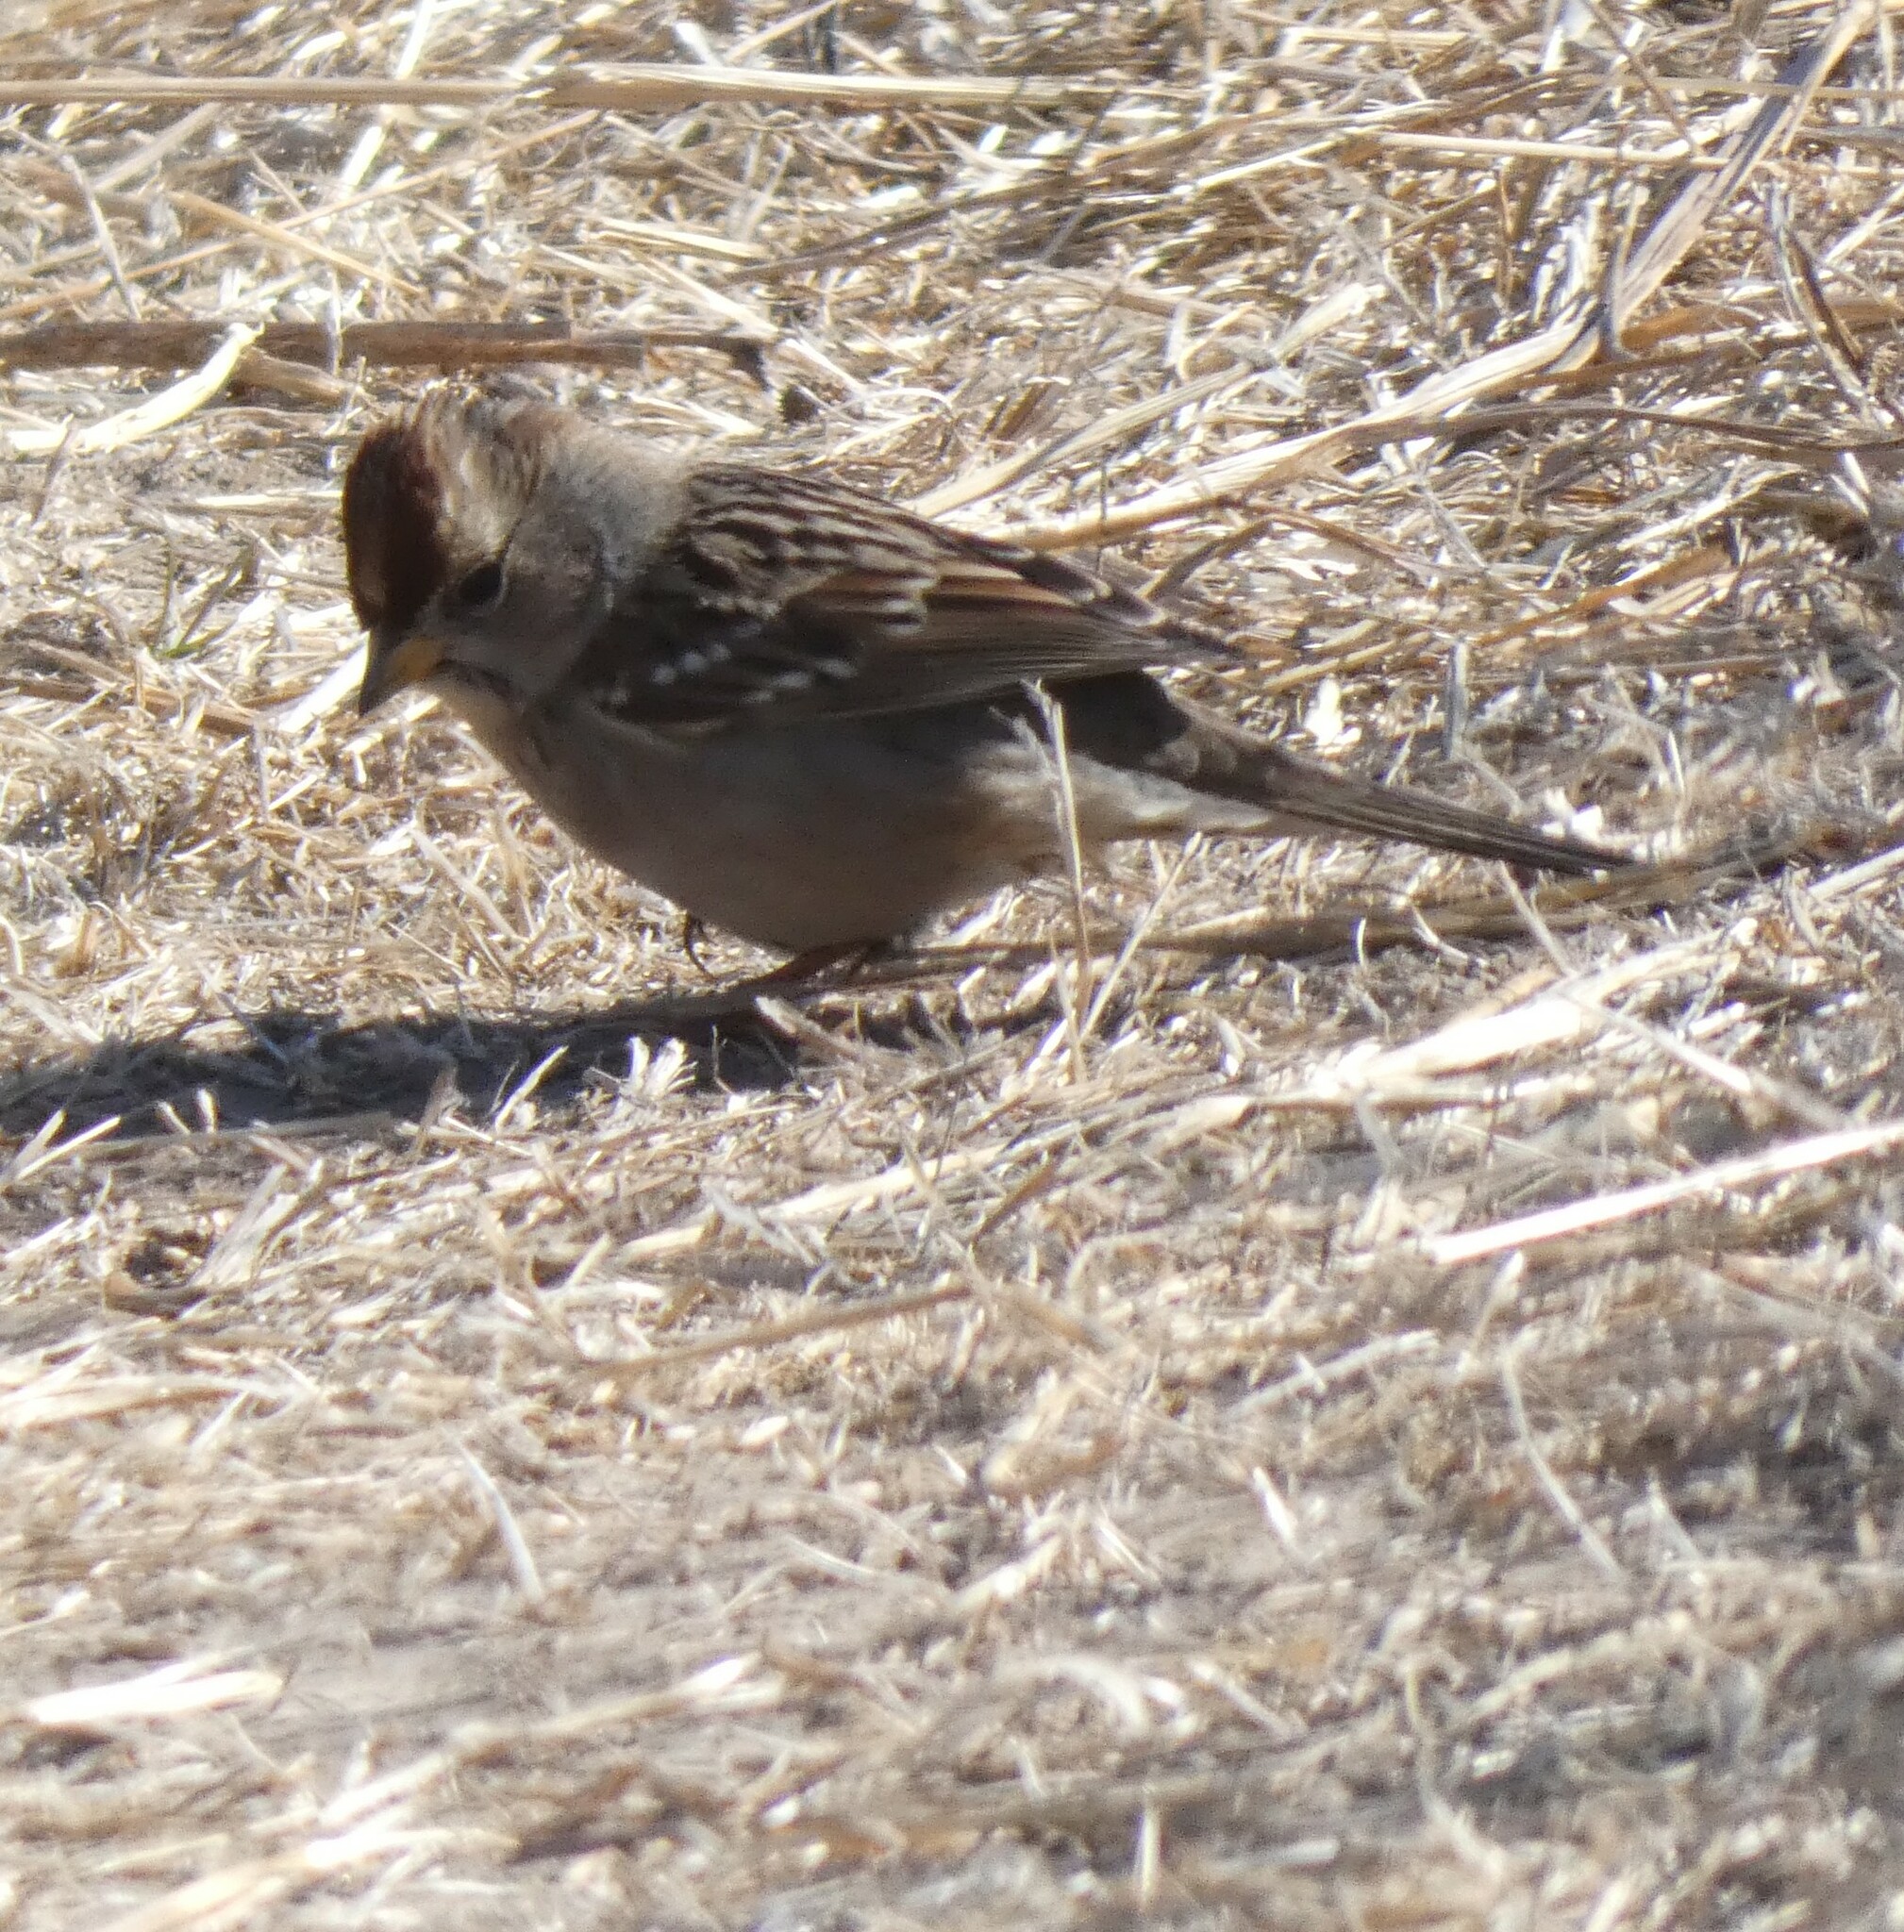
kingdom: Animalia
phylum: Chordata
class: Aves
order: Passeriformes
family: Passerellidae
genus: Zonotrichia
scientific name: Zonotrichia leucophrys
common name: White-crowned sparrow
